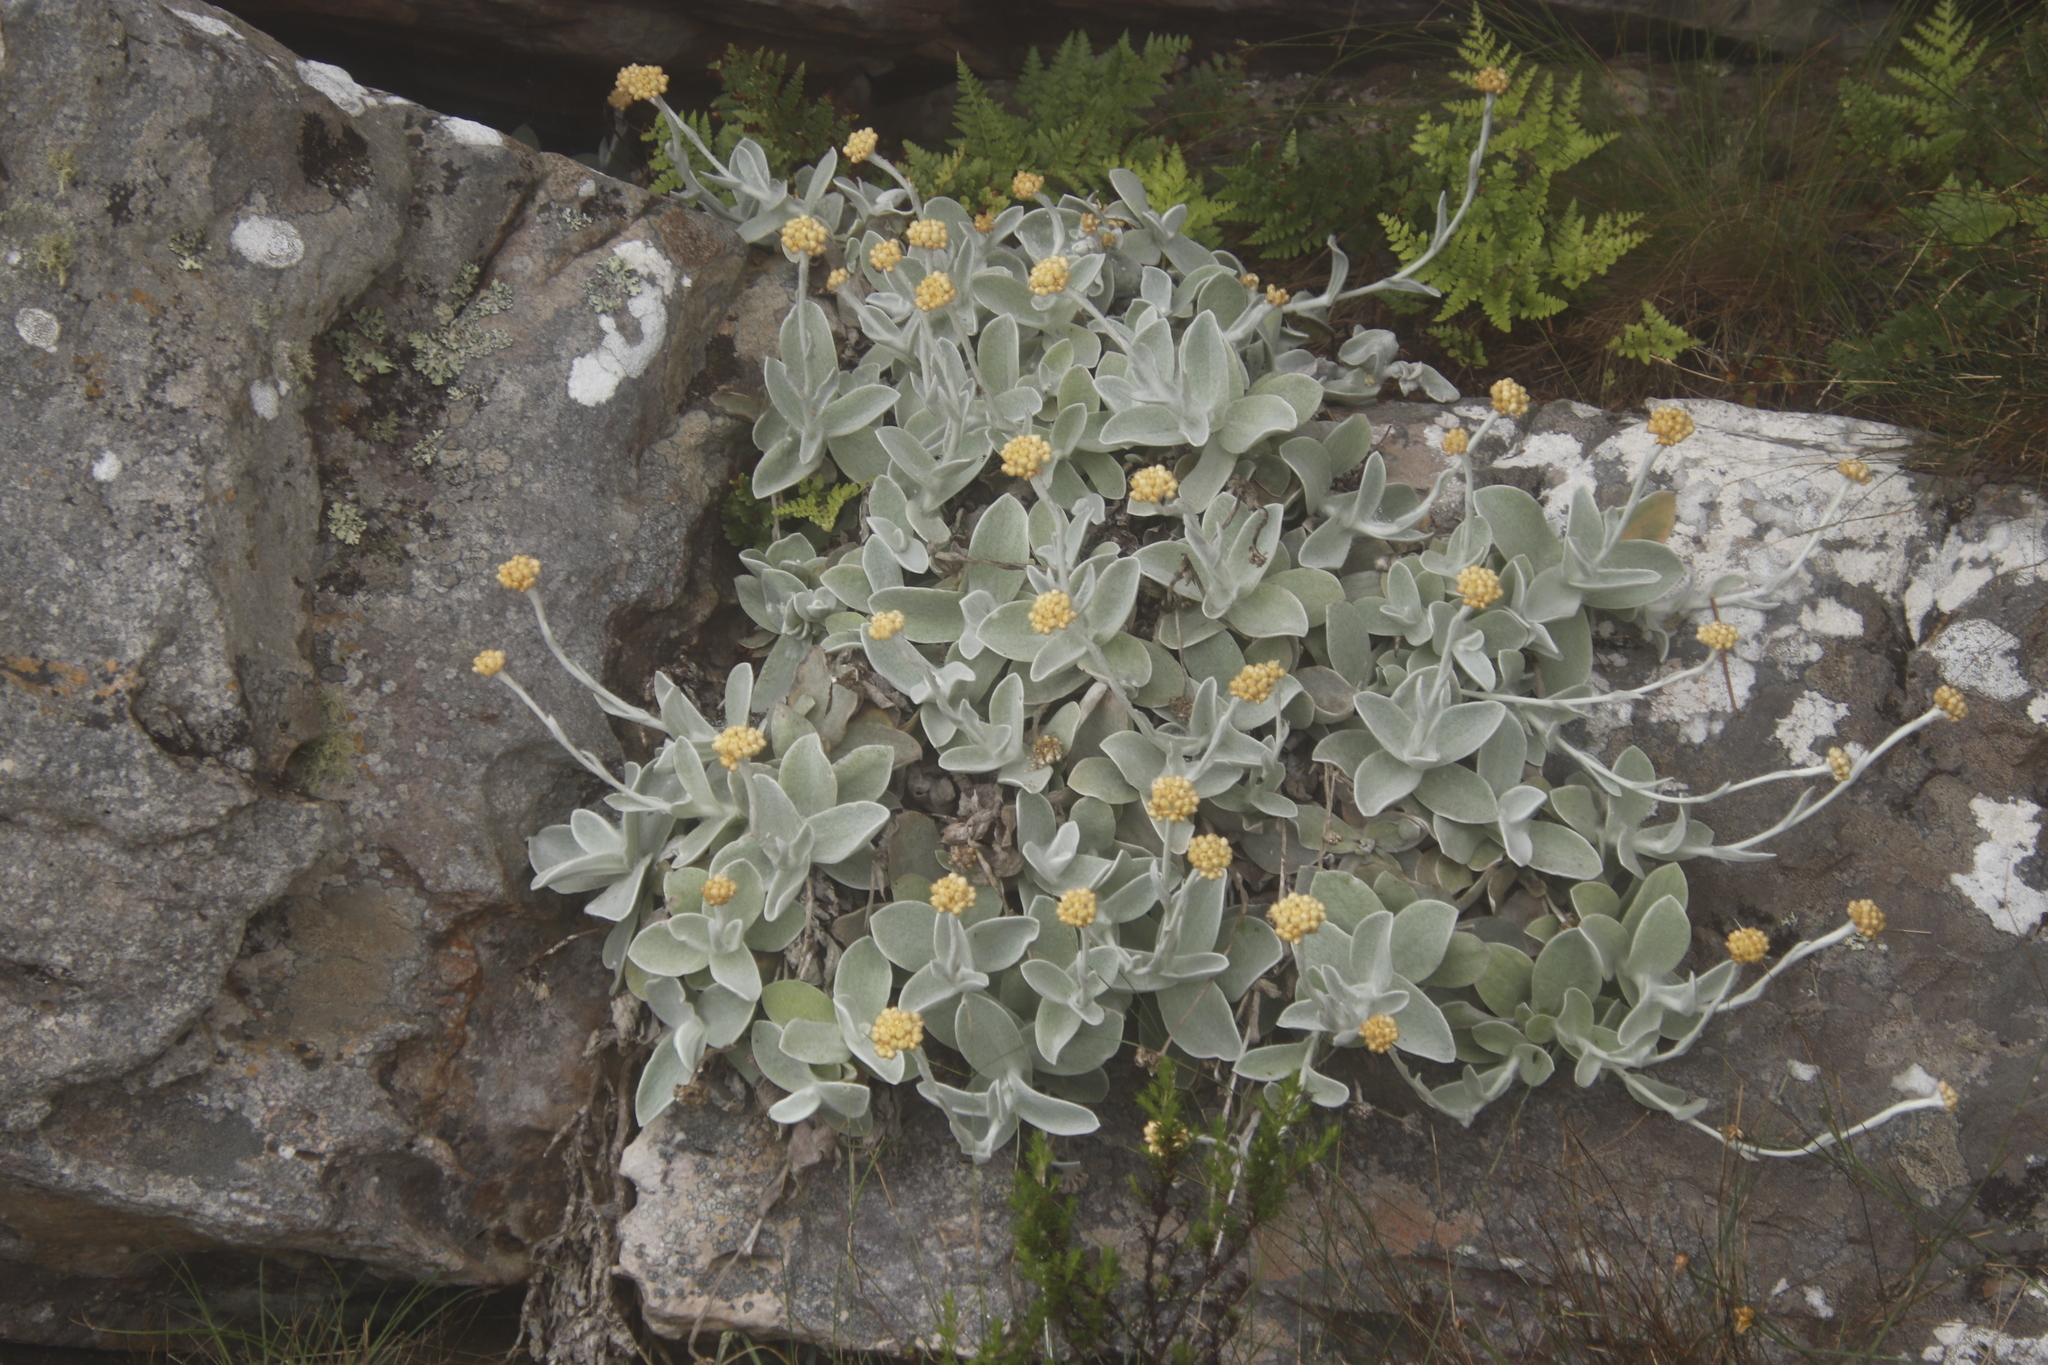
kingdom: Plantae
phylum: Tracheophyta
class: Magnoliopsida
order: Asterales
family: Asteraceae
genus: Helichrysum
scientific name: Helichrysum grandiflorum
